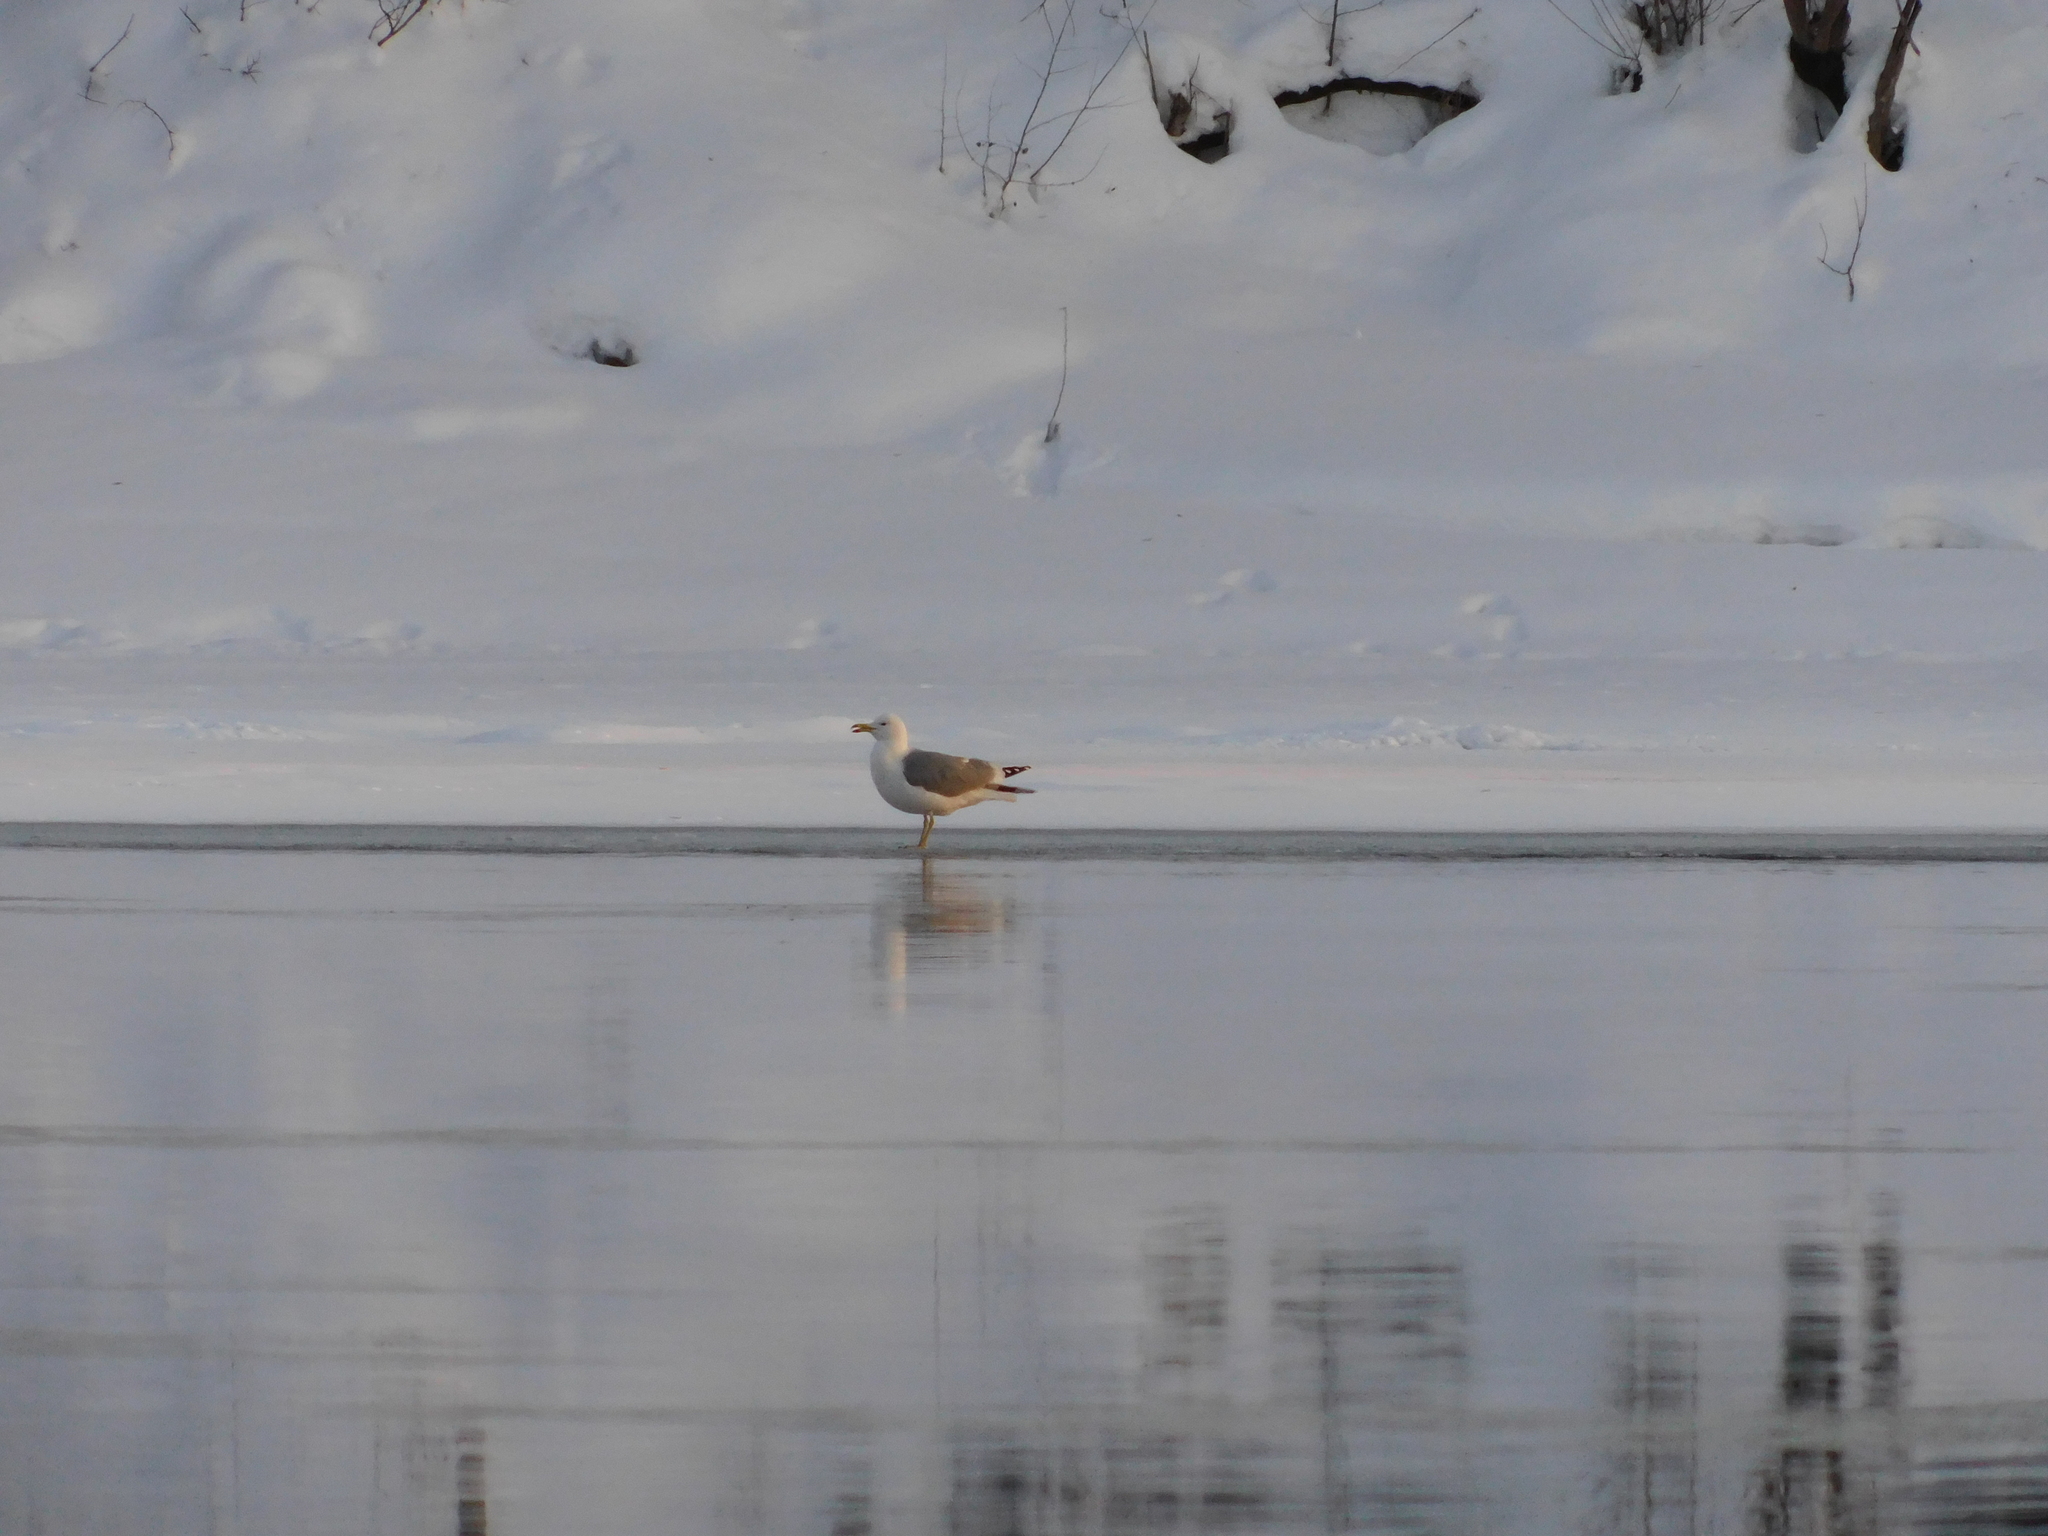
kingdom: Animalia
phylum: Chordata
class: Aves
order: Charadriiformes
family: Laridae
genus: Larus
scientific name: Larus cachinnans
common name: Caspian gull
